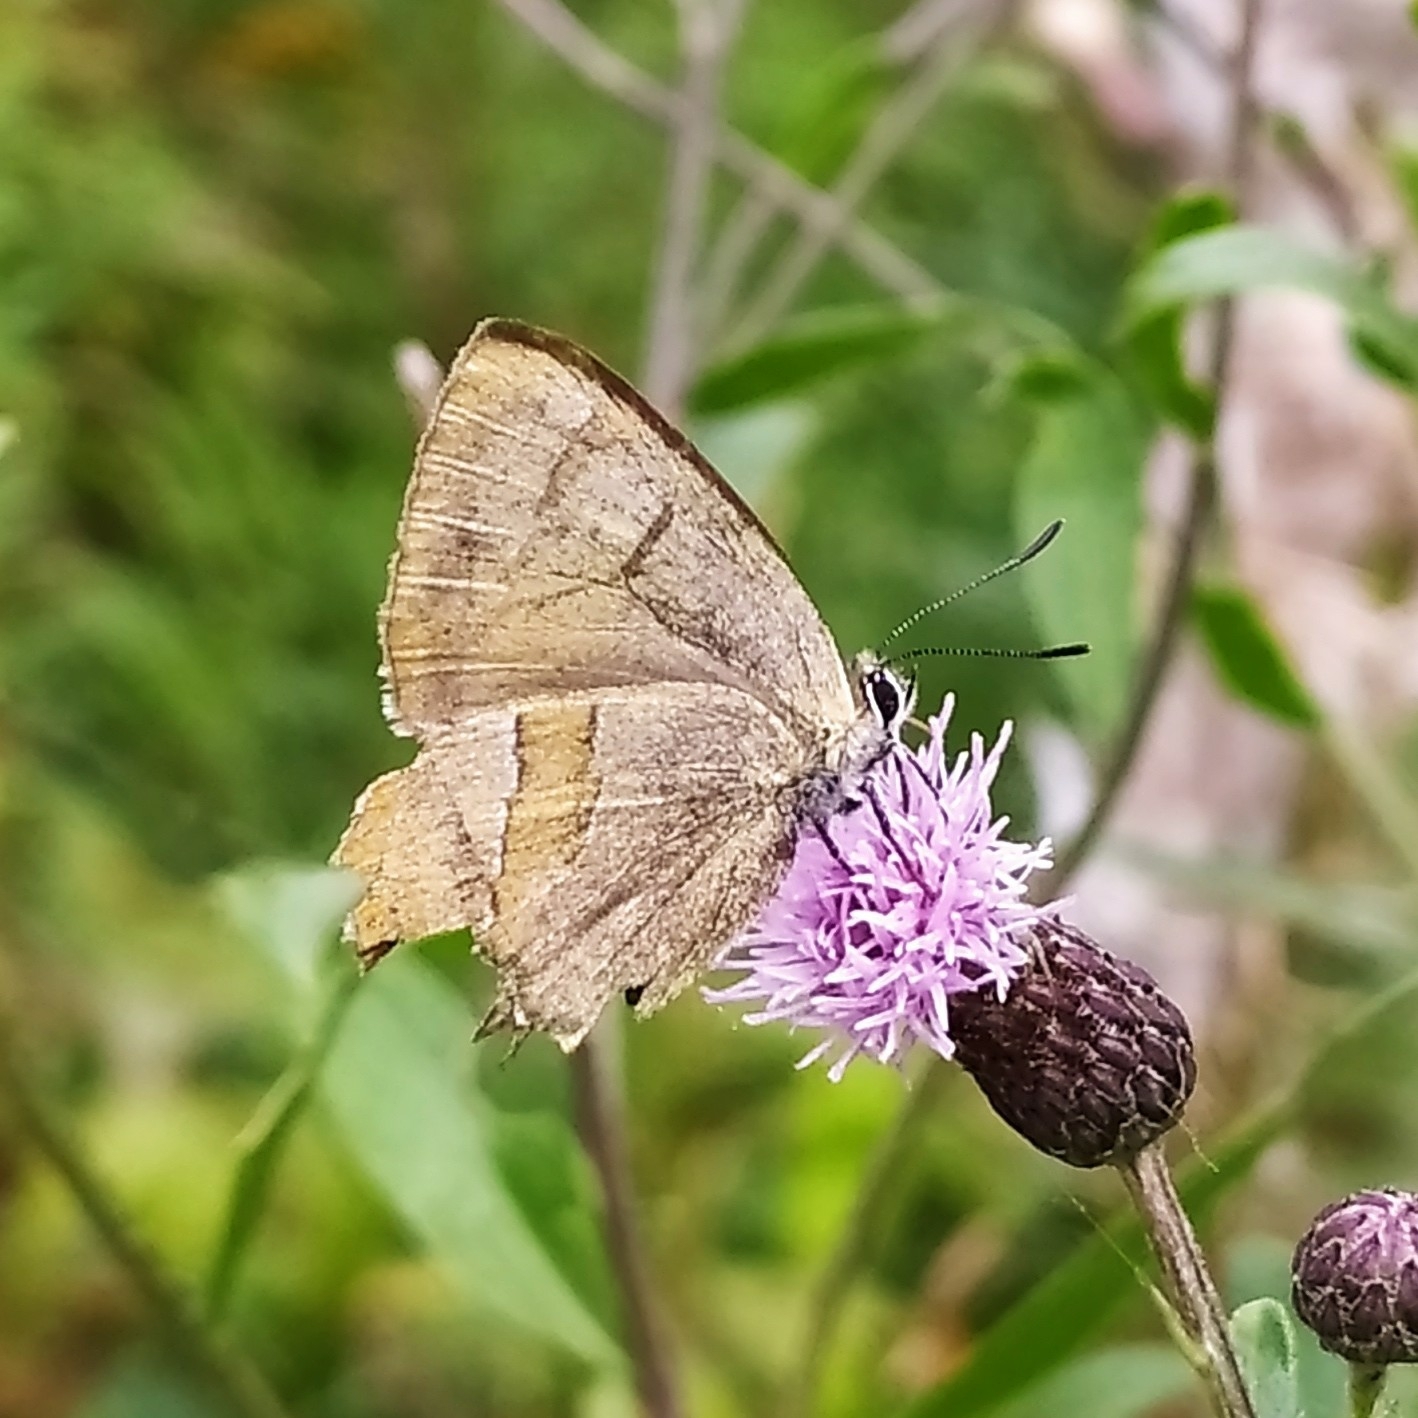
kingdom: Animalia
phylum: Arthropoda
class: Insecta
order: Lepidoptera
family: Lycaenidae
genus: Thecla
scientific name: Thecla betulae
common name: Brown hairstreak
